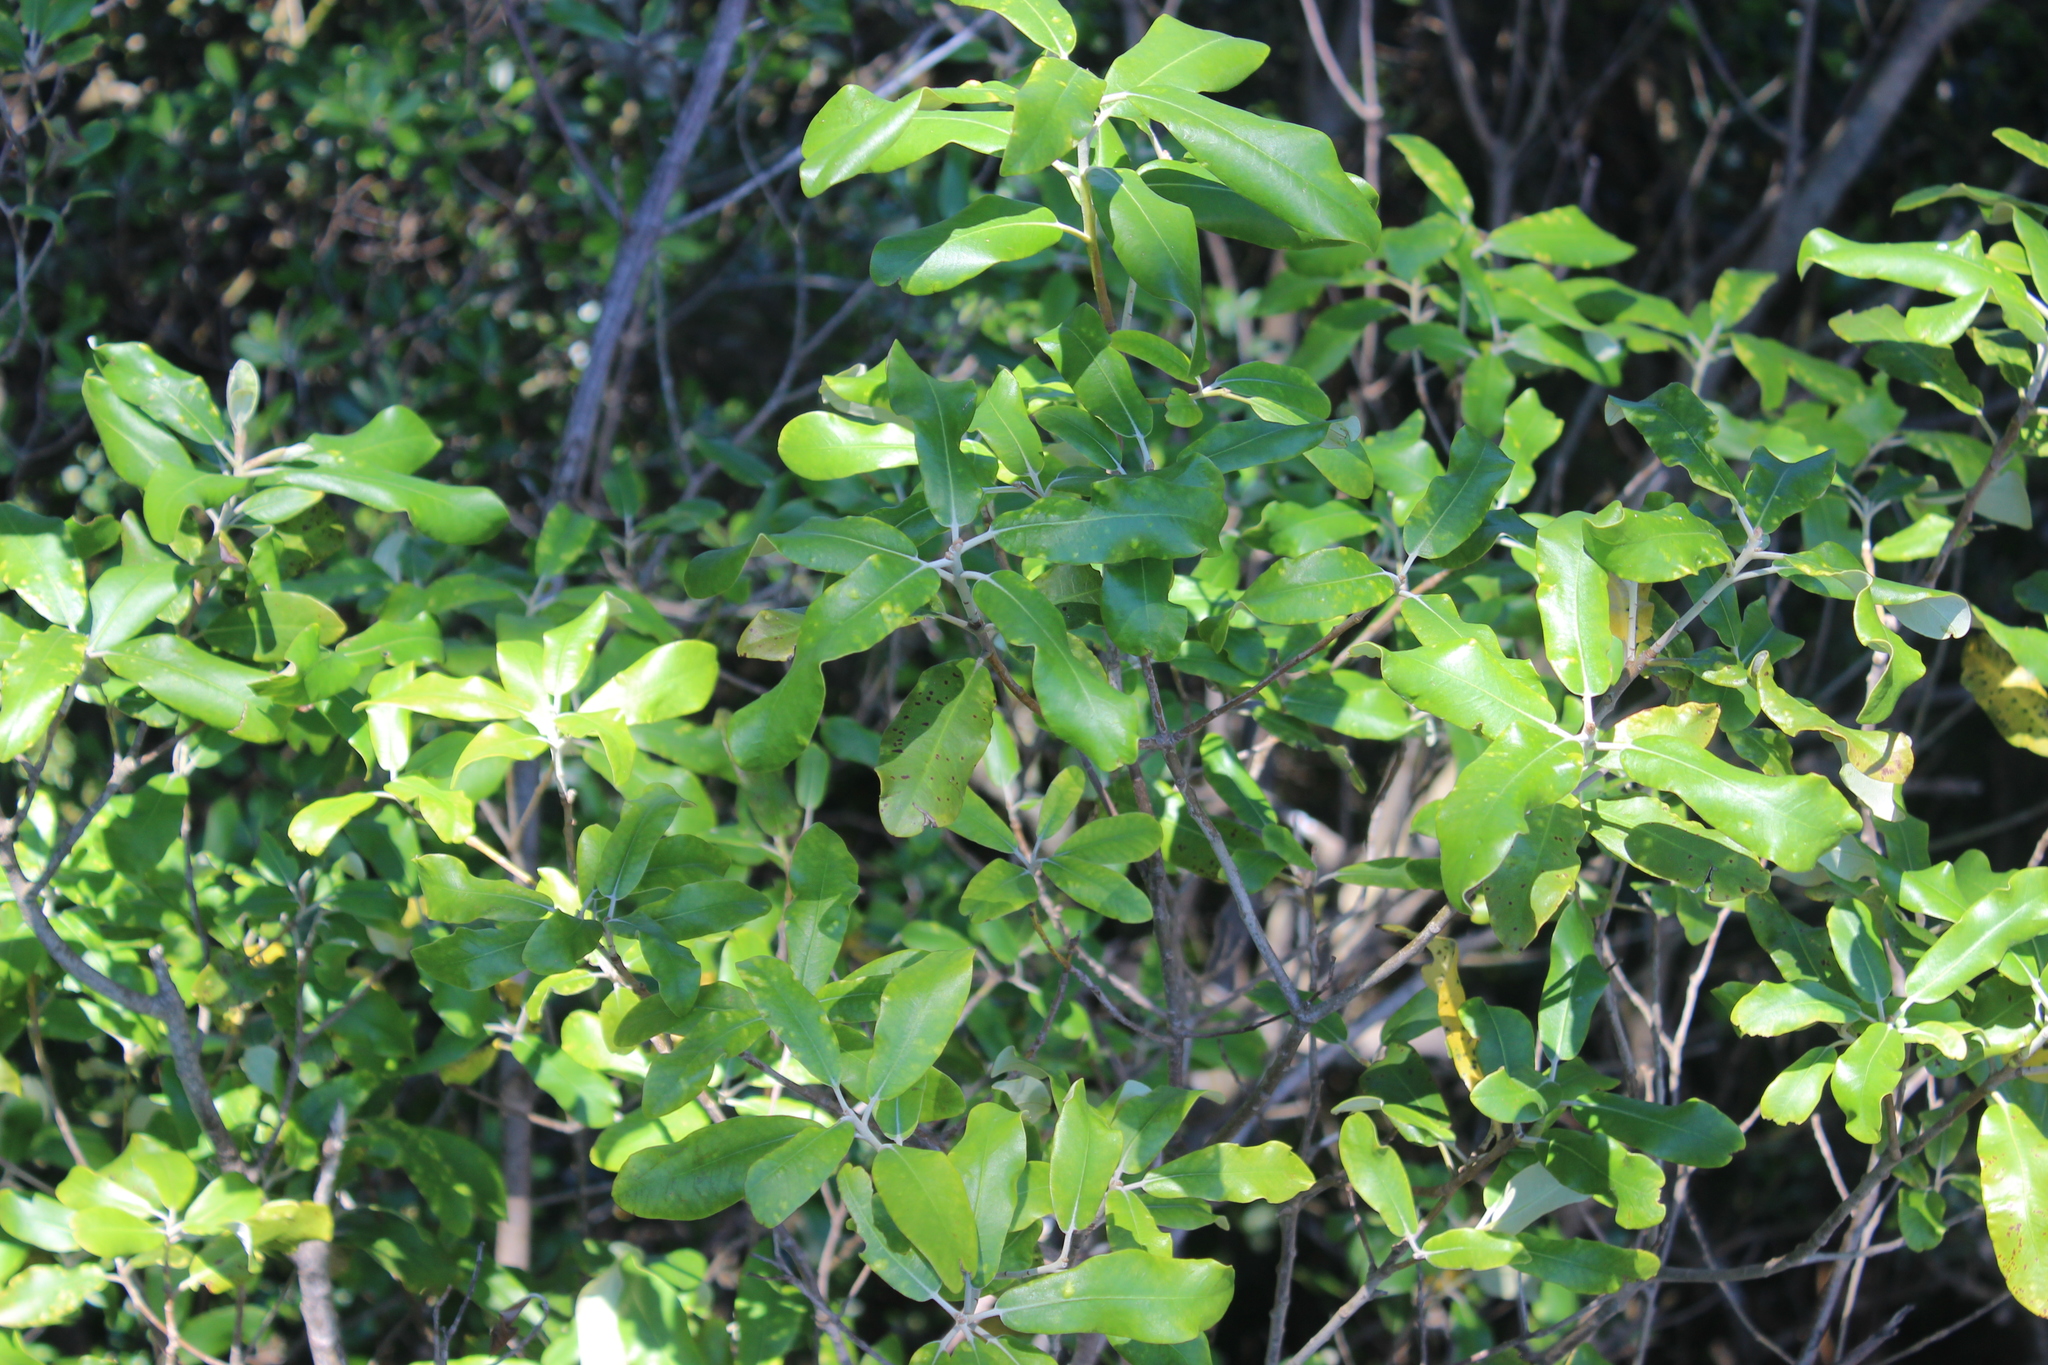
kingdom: Plantae
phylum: Tracheophyta
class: Magnoliopsida
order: Apiales
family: Pittosporaceae
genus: Pittosporum
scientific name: Pittosporum ralphii
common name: Ralph's desertwillow
